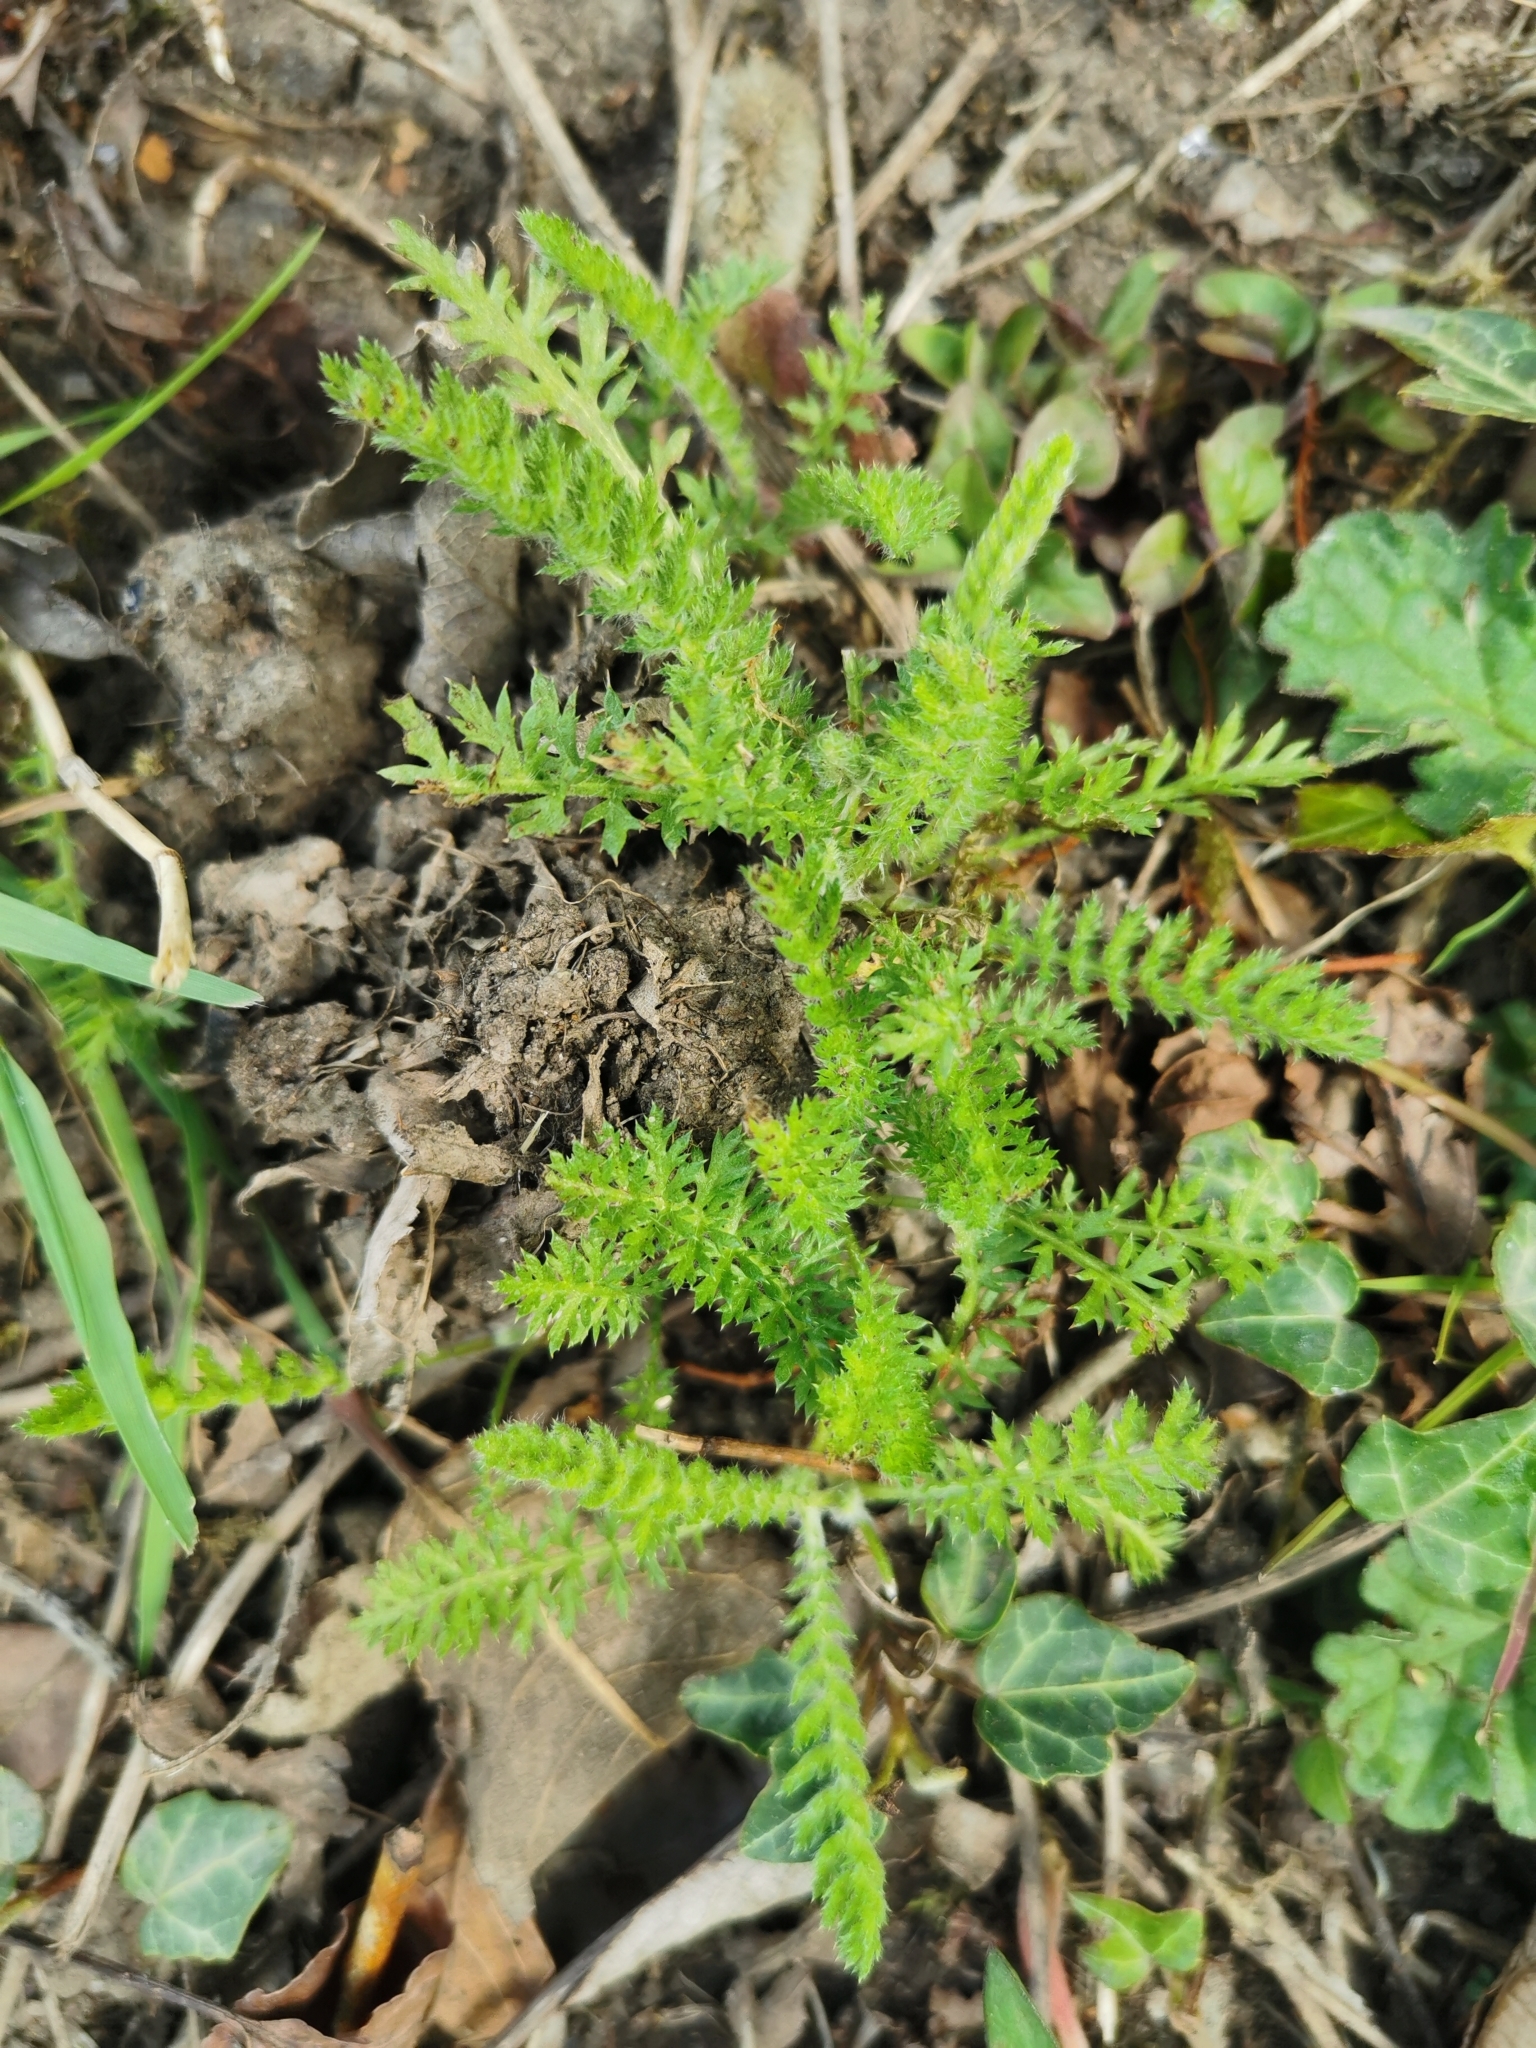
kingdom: Plantae
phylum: Tracheophyta
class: Magnoliopsida
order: Asterales
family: Asteraceae
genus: Achillea
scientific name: Achillea millefolium
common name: Yarrow
